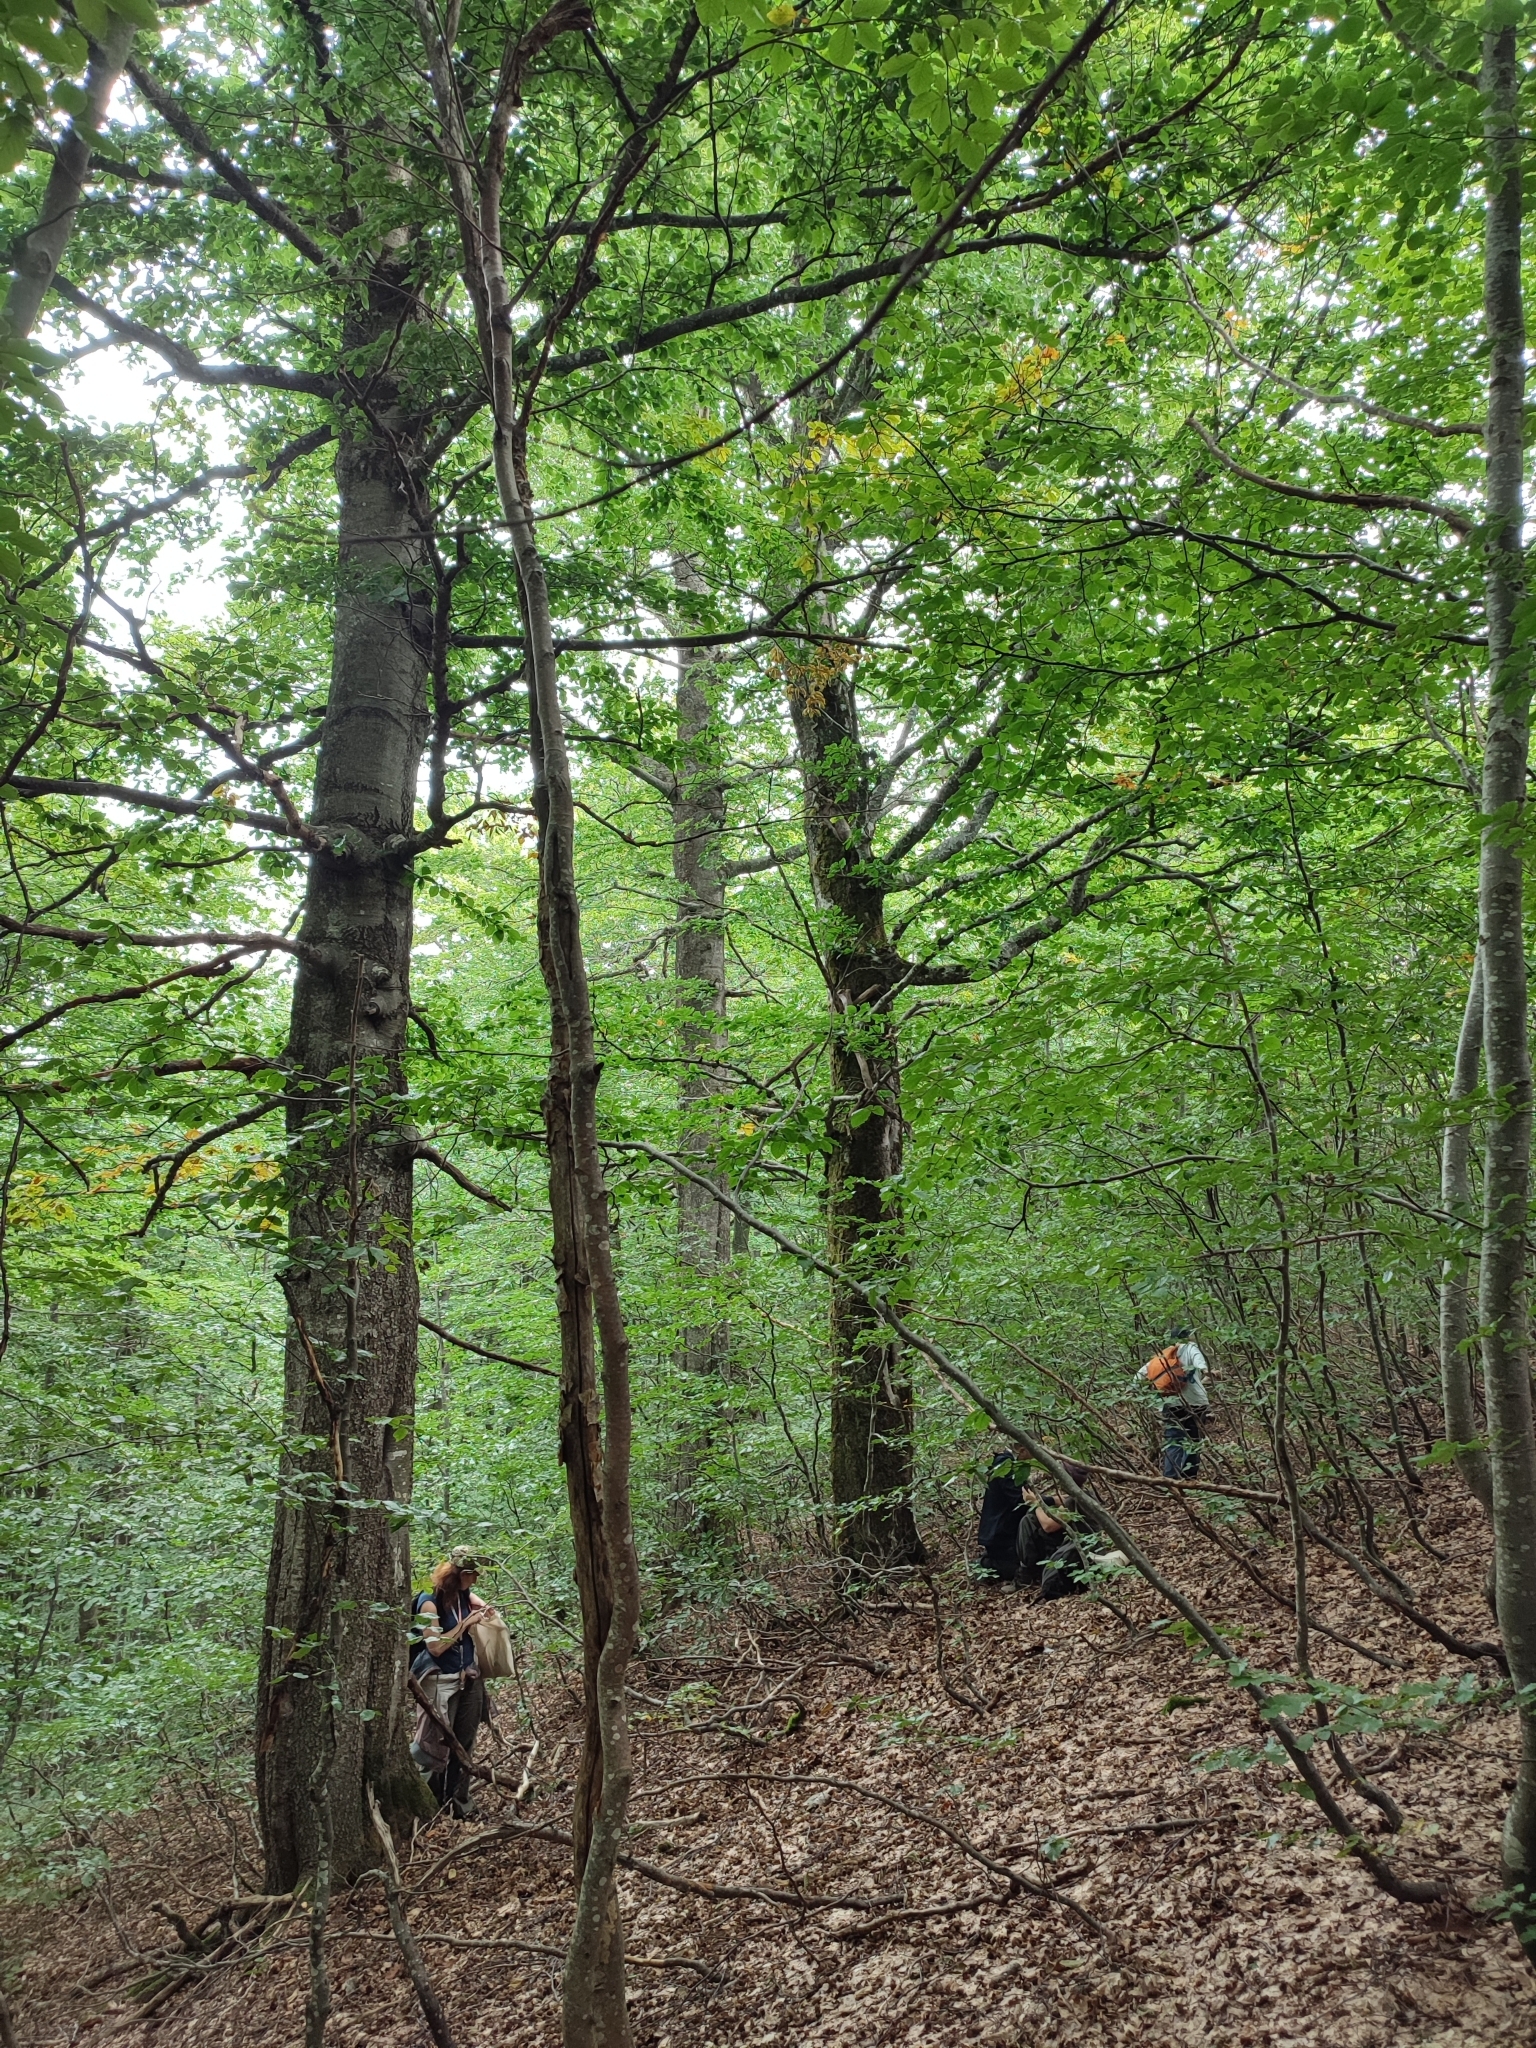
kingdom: Plantae
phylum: Tracheophyta
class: Magnoliopsida
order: Fagales
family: Fagaceae
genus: Fagus
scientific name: Fagus sylvatica
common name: Beech
